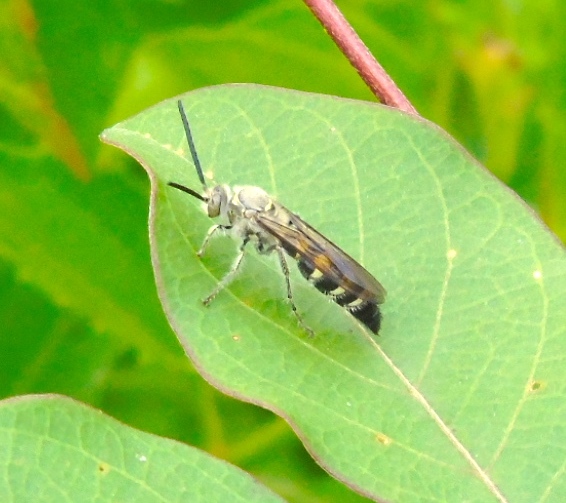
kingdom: Animalia
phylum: Arthropoda
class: Insecta
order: Hymenoptera
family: Scoliidae
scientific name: Scoliidae
